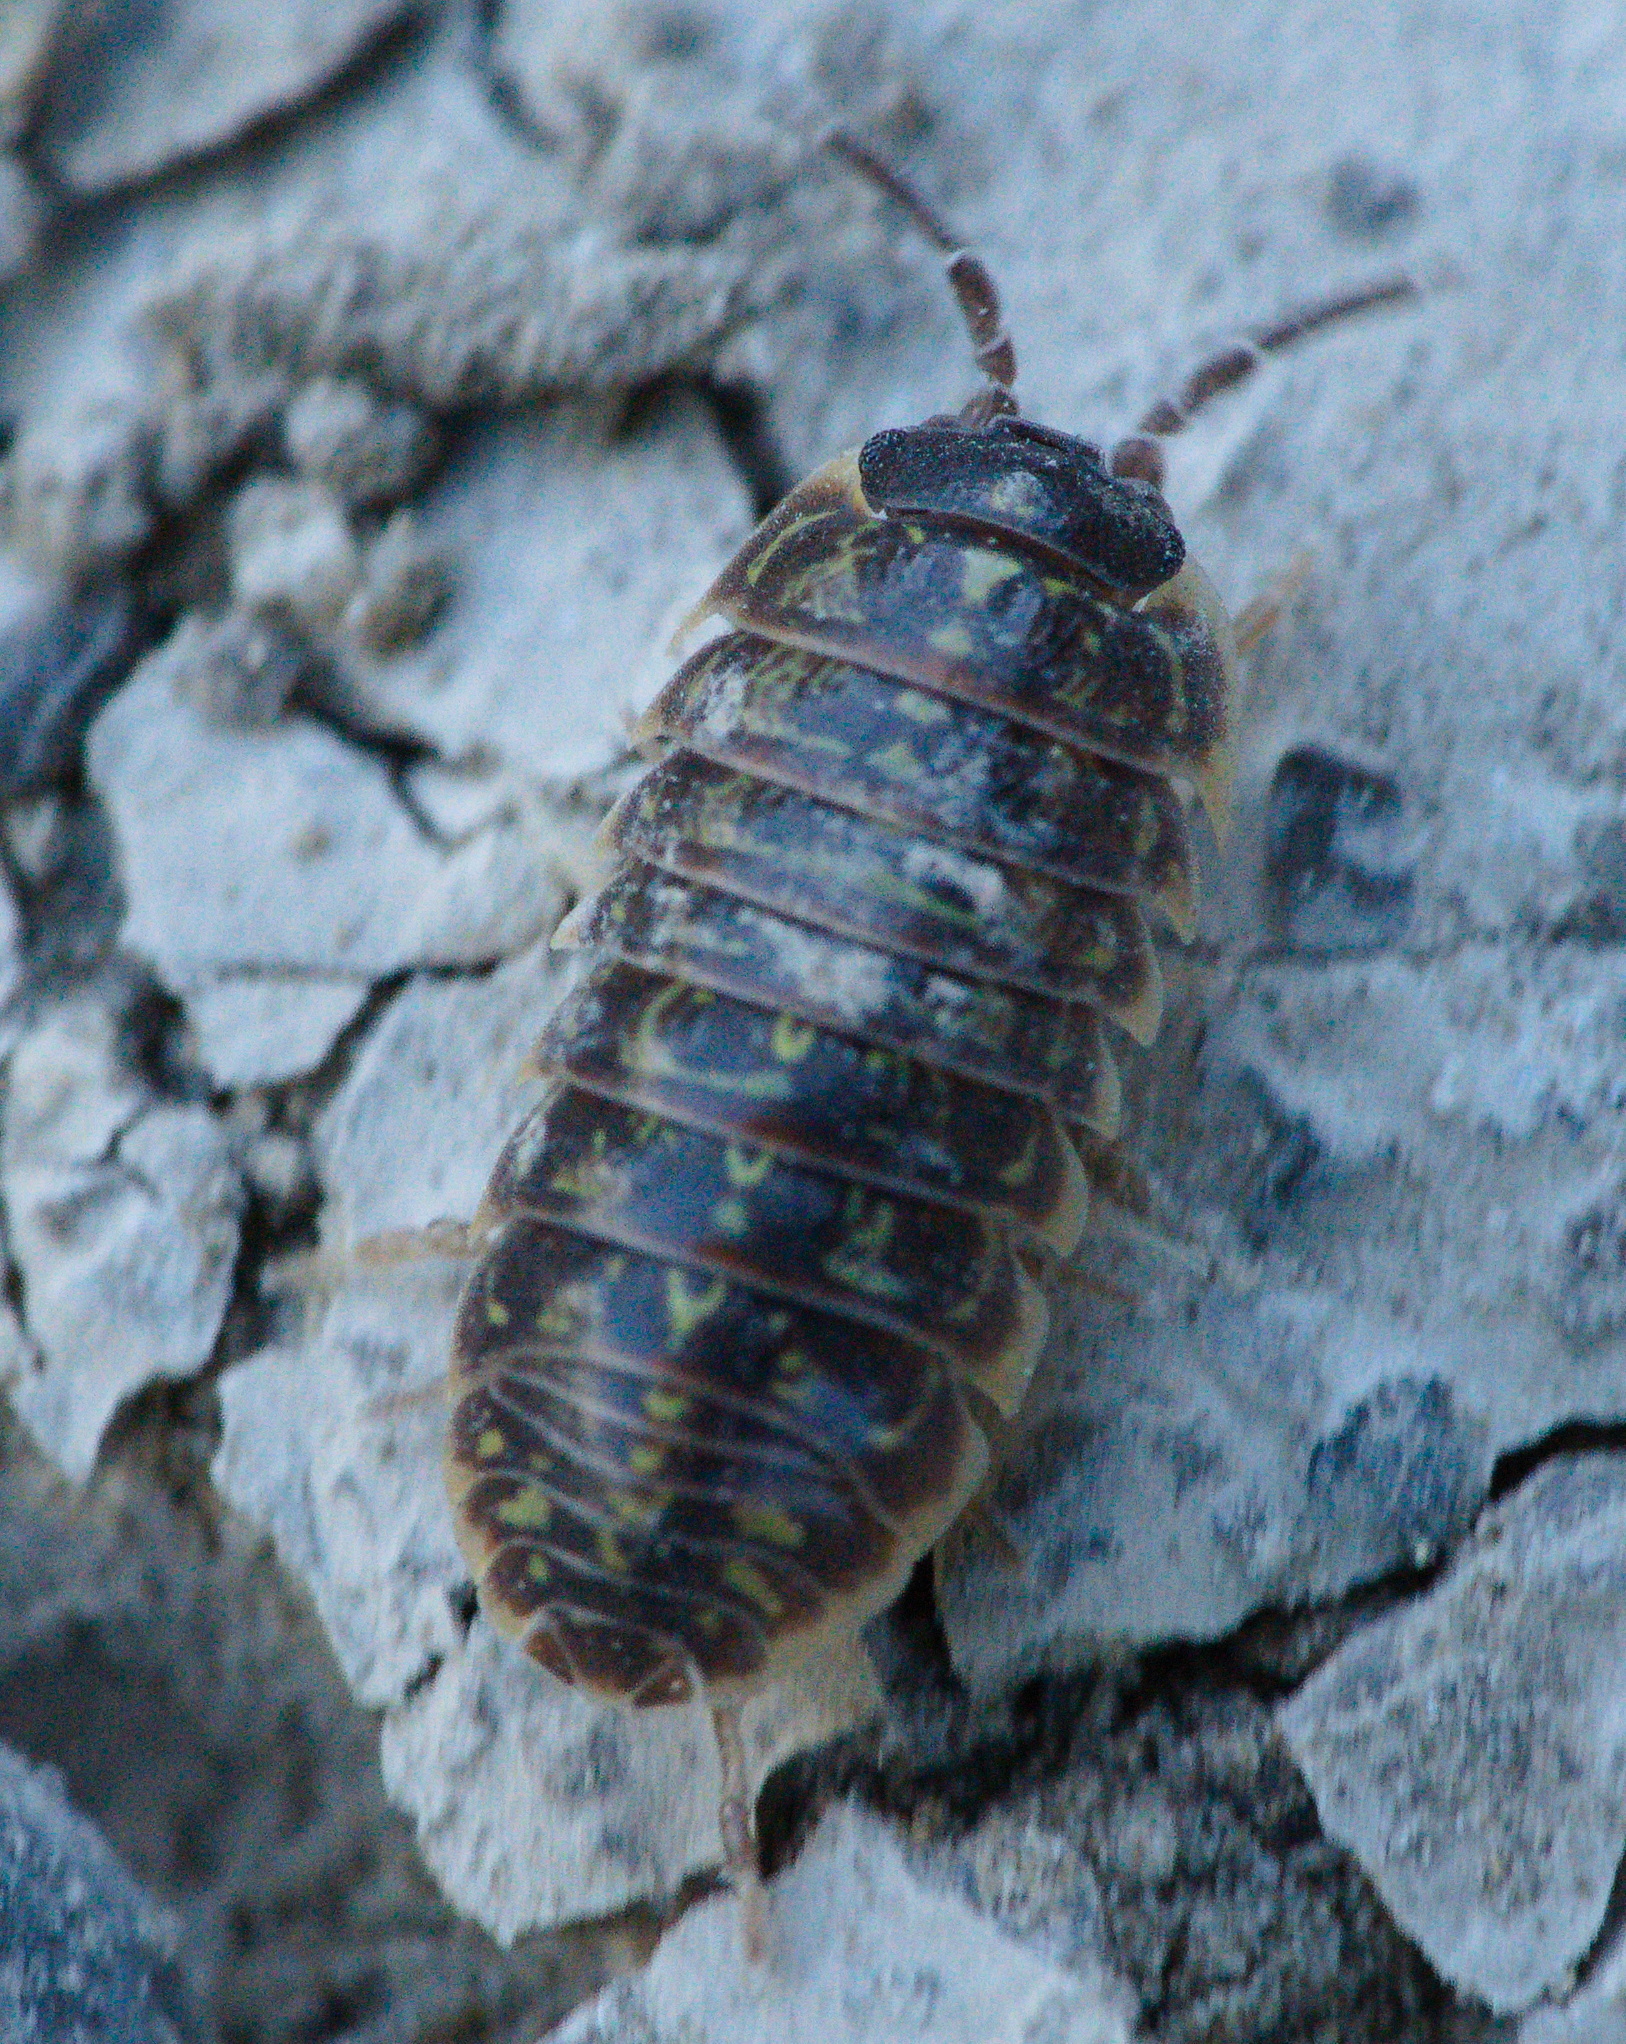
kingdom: Animalia
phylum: Arthropoda
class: Malacostraca
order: Isopoda
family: Armadillidiidae
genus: Armadillidium
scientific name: Armadillidium versicolor
